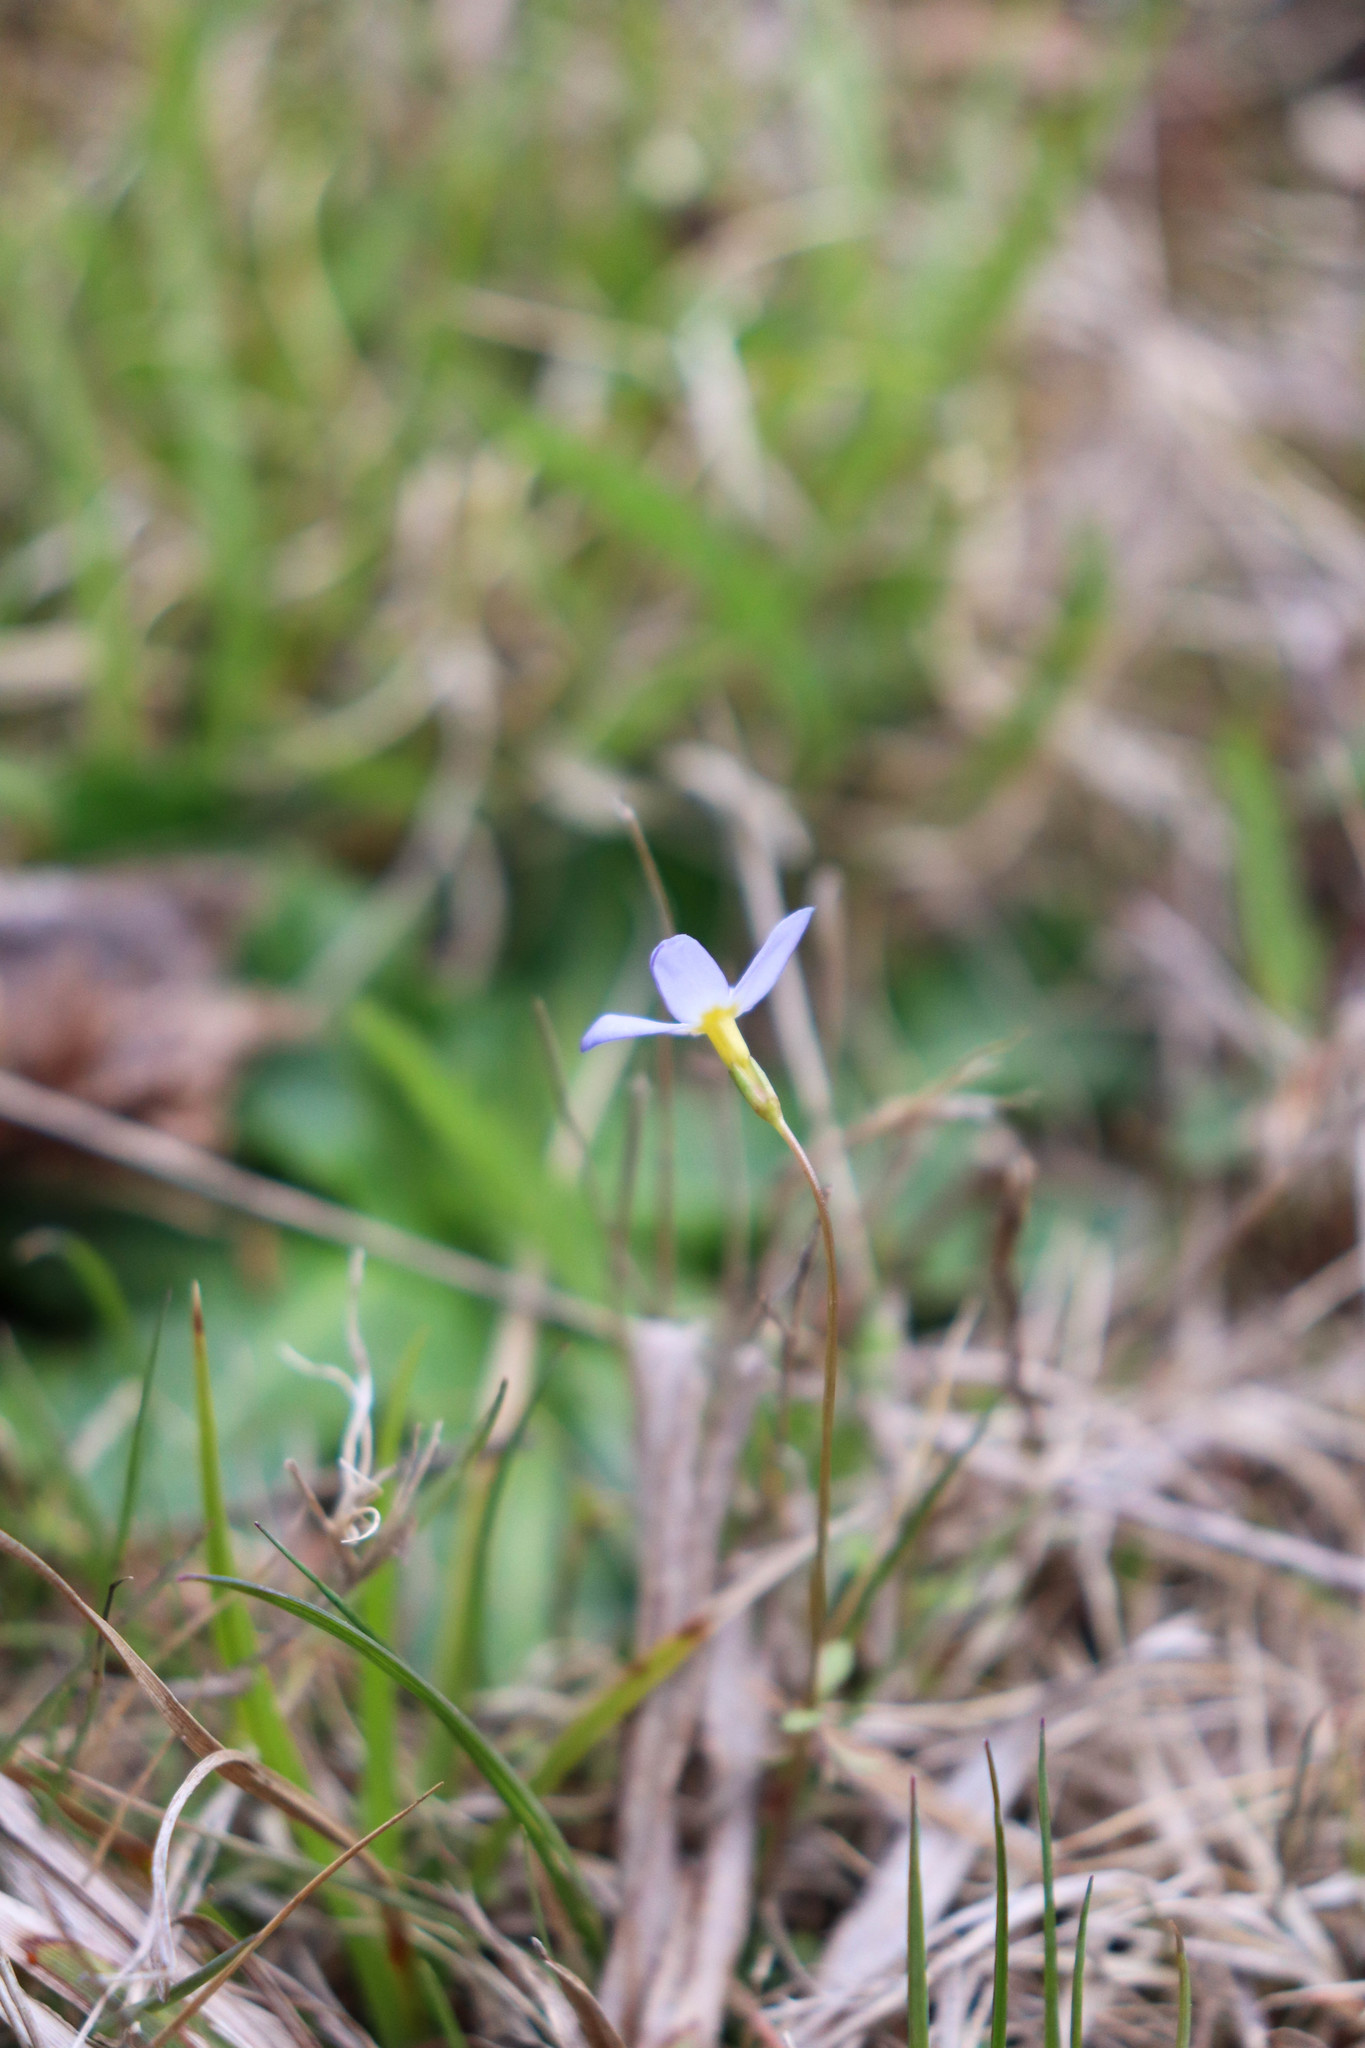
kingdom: Plantae
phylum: Tracheophyta
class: Magnoliopsida
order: Gentianales
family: Rubiaceae
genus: Houstonia
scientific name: Houstonia caerulea
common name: Bluets
